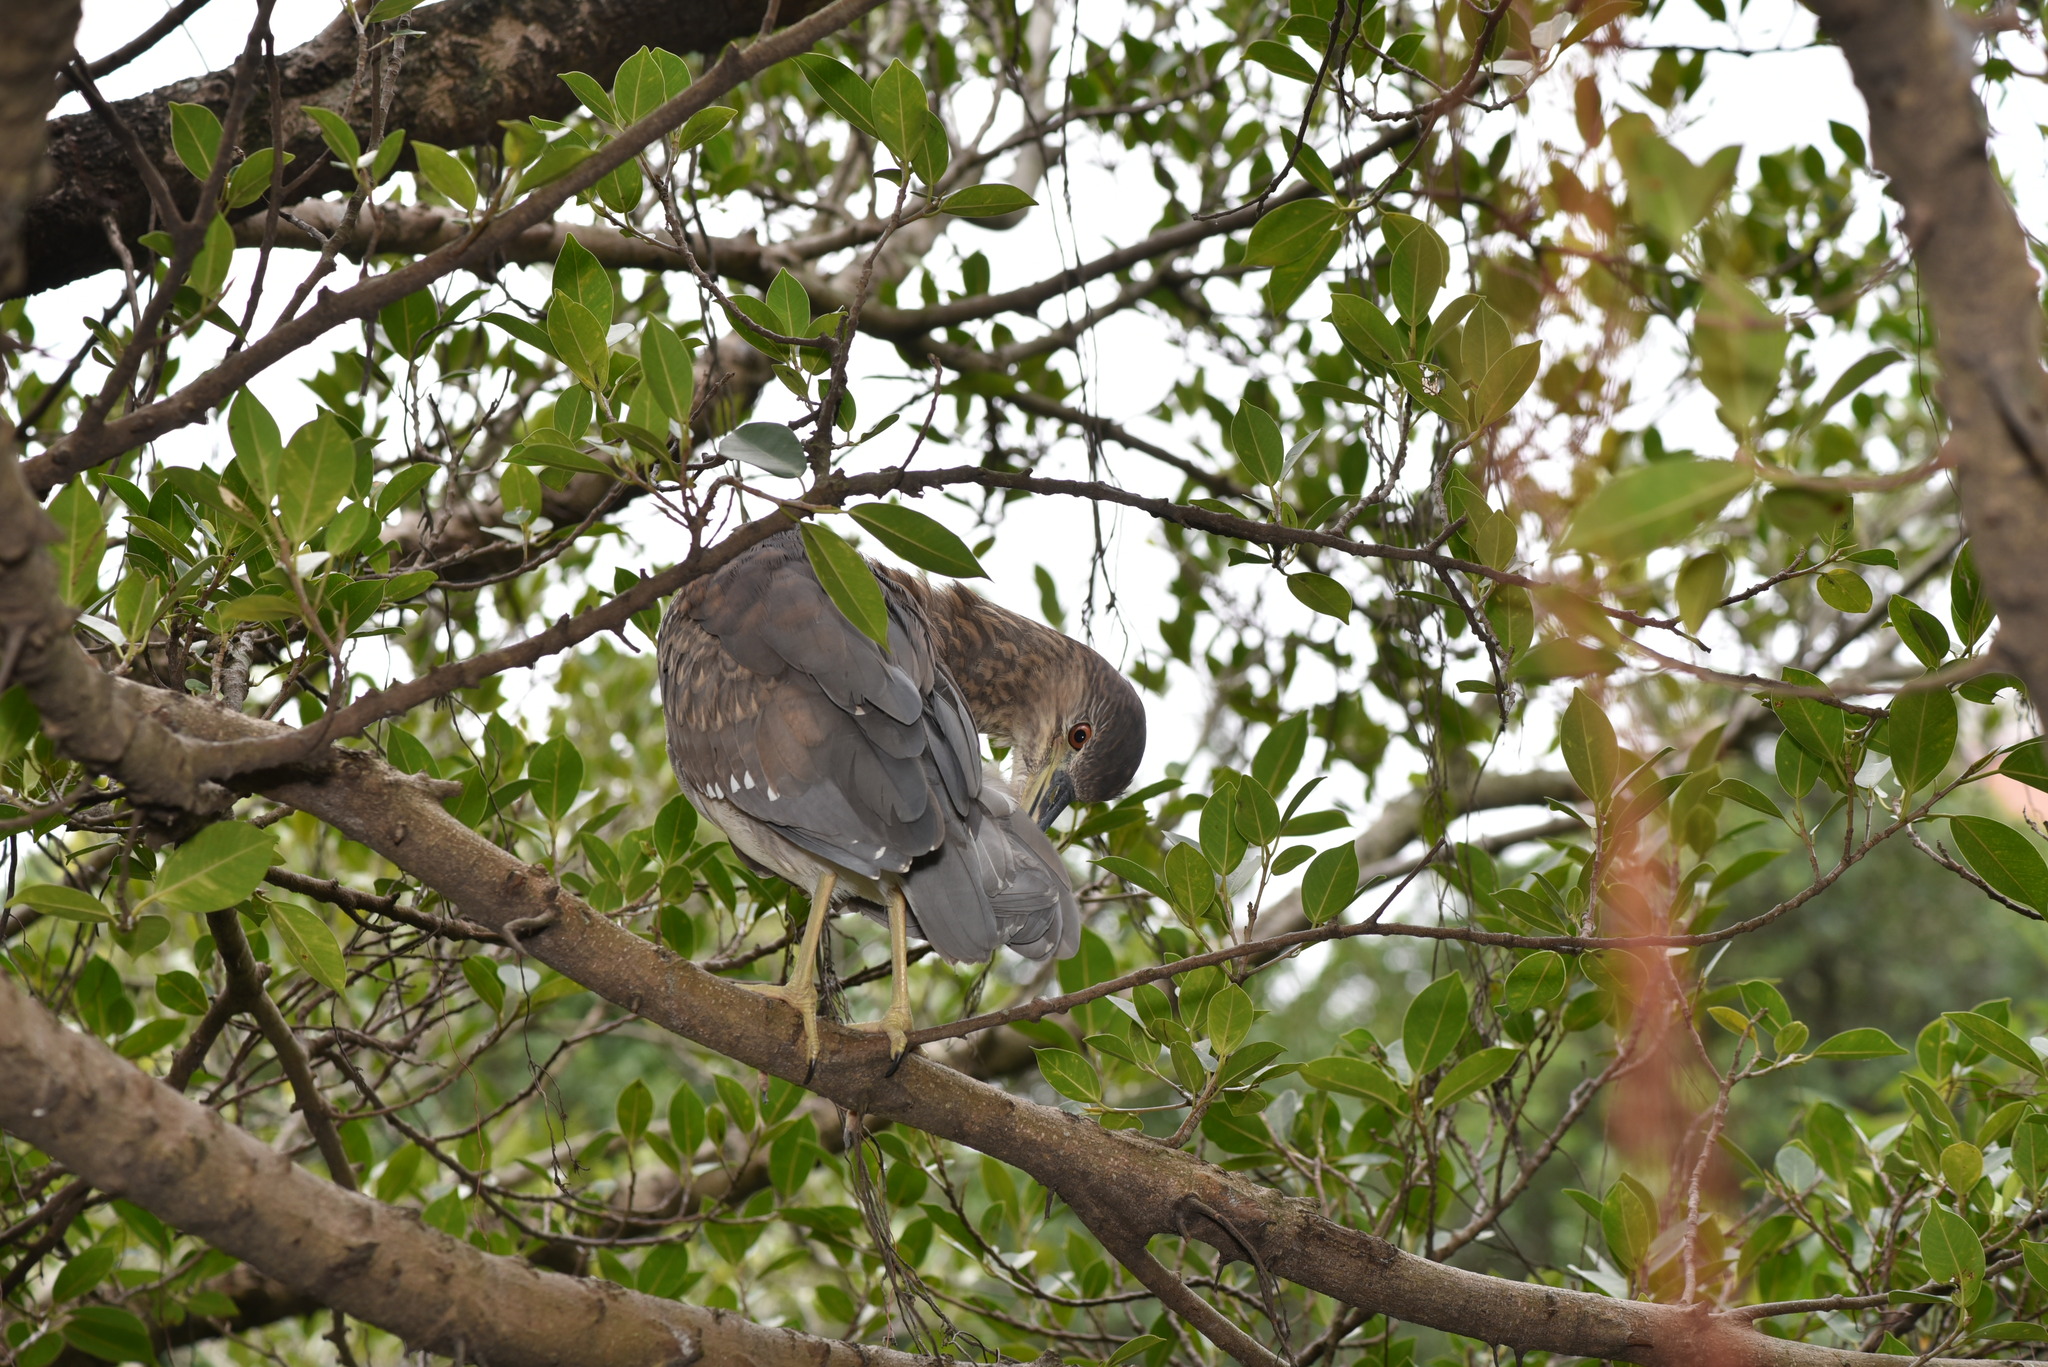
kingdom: Animalia
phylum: Chordata
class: Aves
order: Pelecaniformes
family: Ardeidae
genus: Nycticorax
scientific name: Nycticorax nycticorax
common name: Black-crowned night heron
